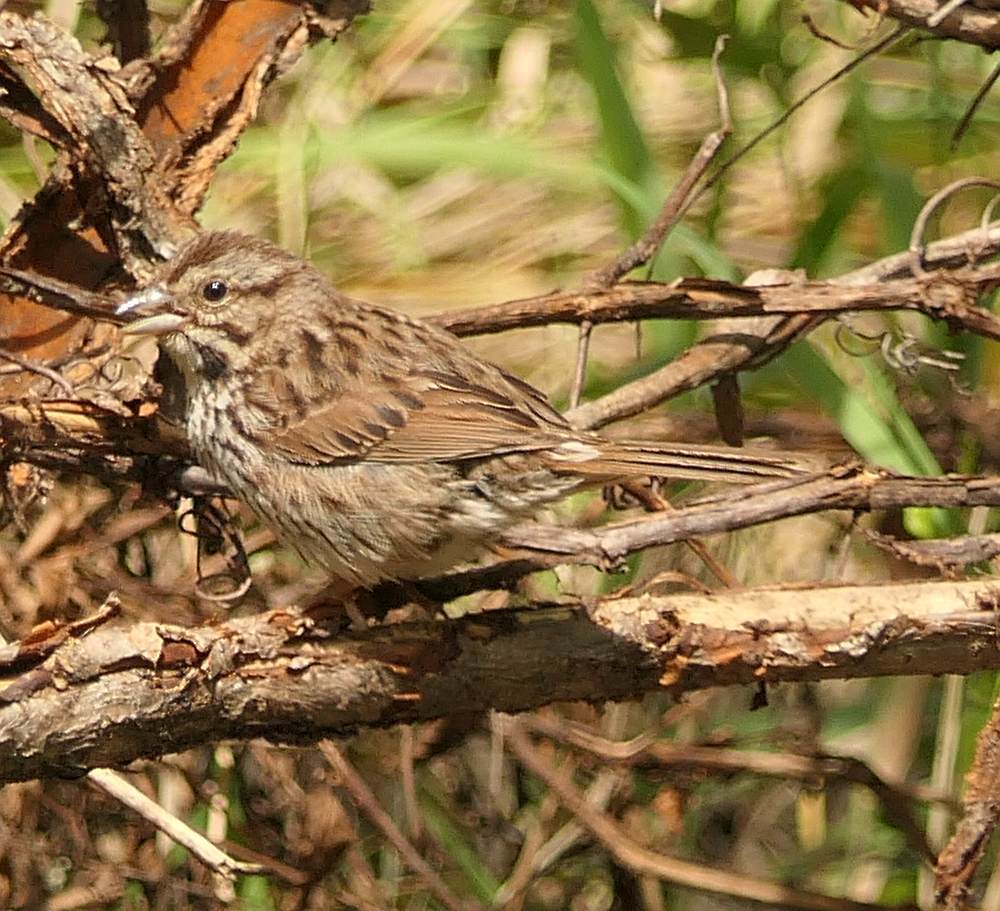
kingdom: Animalia
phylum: Chordata
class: Aves
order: Passeriformes
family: Passerellidae
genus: Melospiza
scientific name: Melospiza melodia
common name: Song sparrow
